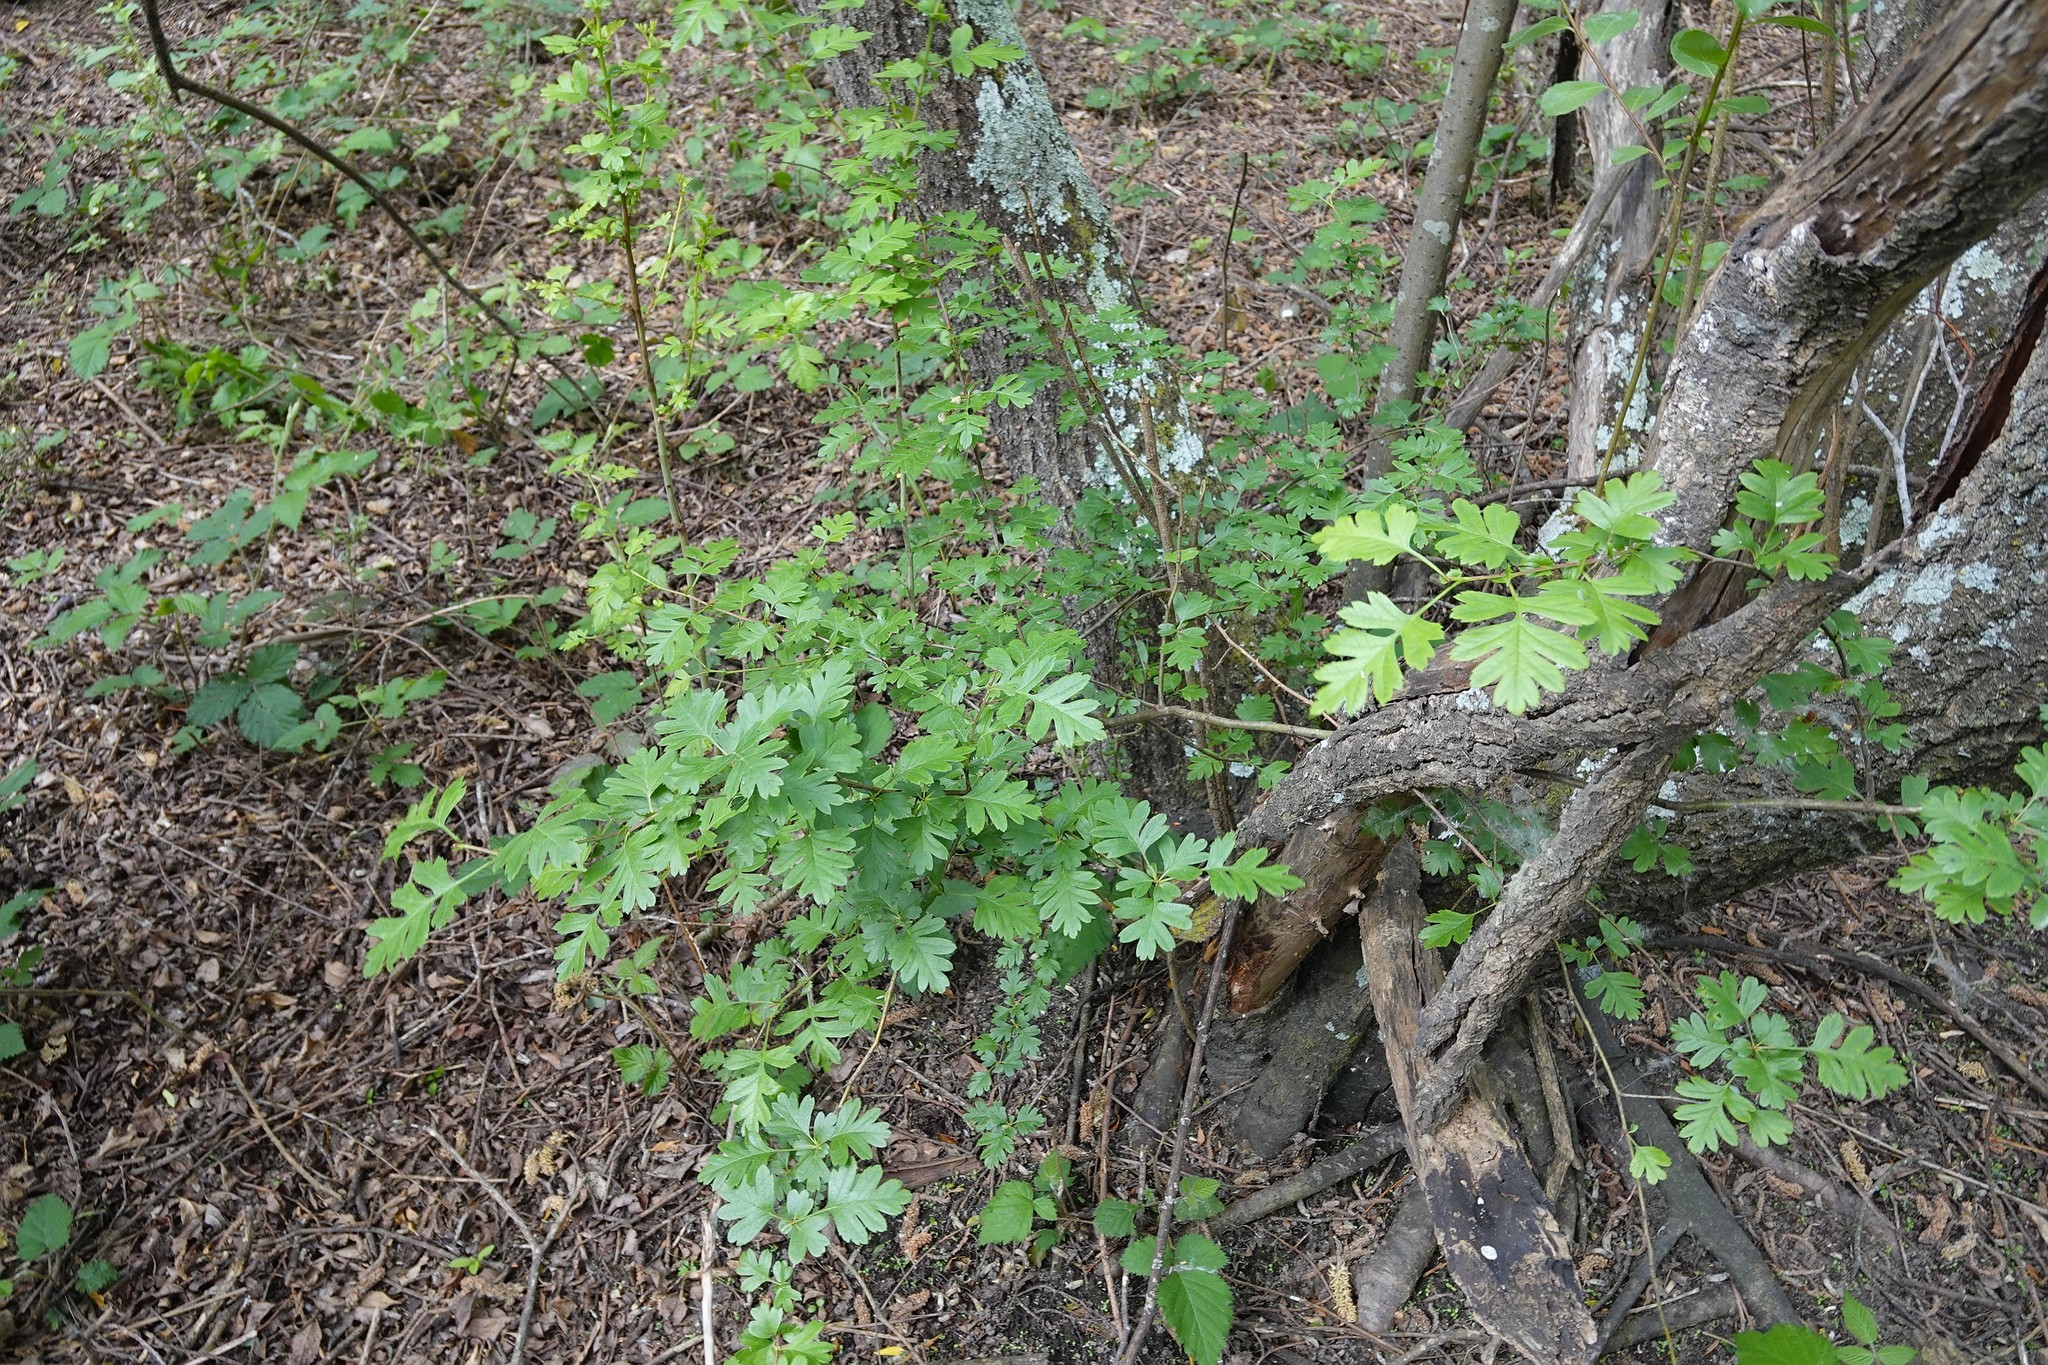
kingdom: Plantae
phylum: Tracheophyta
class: Magnoliopsida
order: Rosales
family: Rosaceae
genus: Crataegus
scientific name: Crataegus monogyna
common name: Hawthorn
